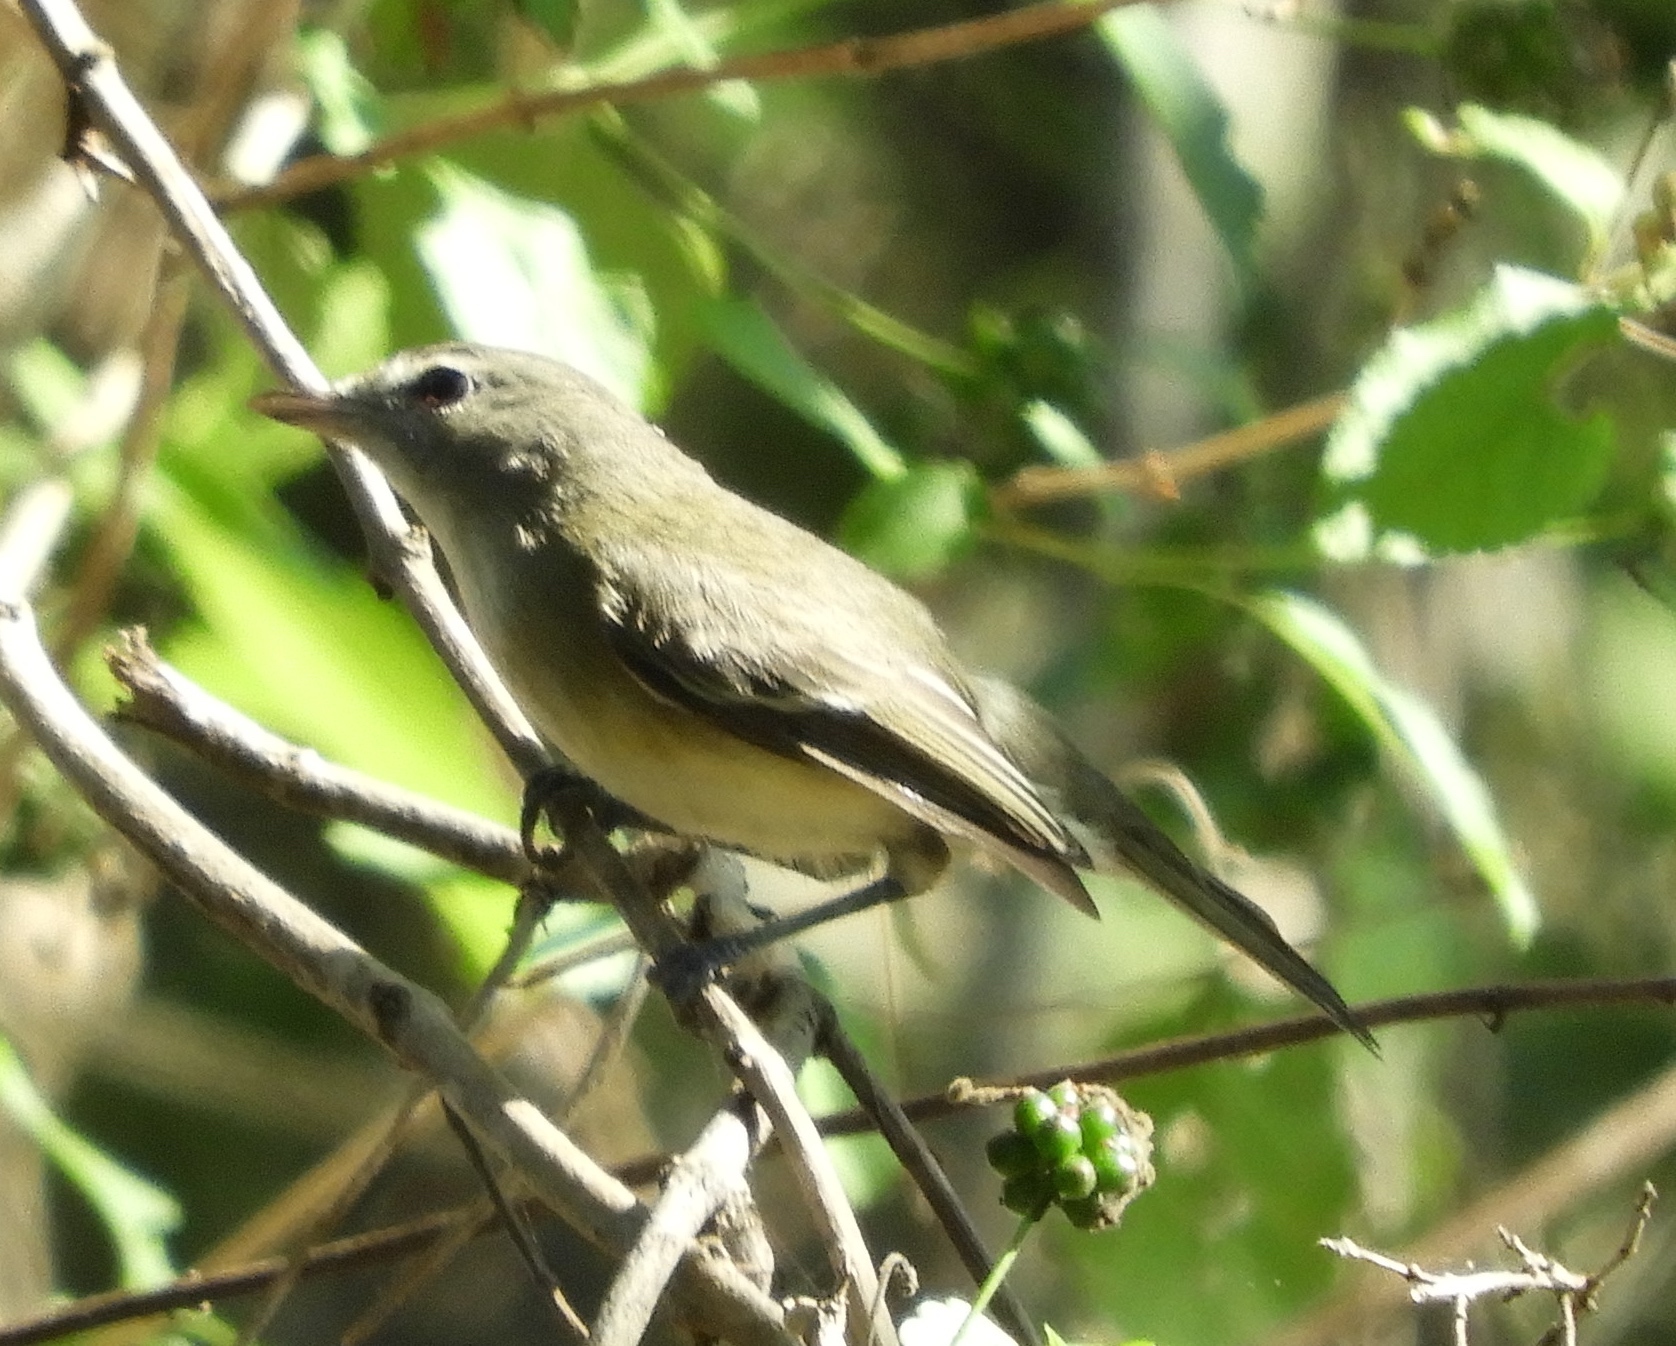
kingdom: Animalia
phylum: Chordata
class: Aves
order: Passeriformes
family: Vireonidae
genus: Vireo
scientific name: Vireo bellii
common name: Bell's vireo
